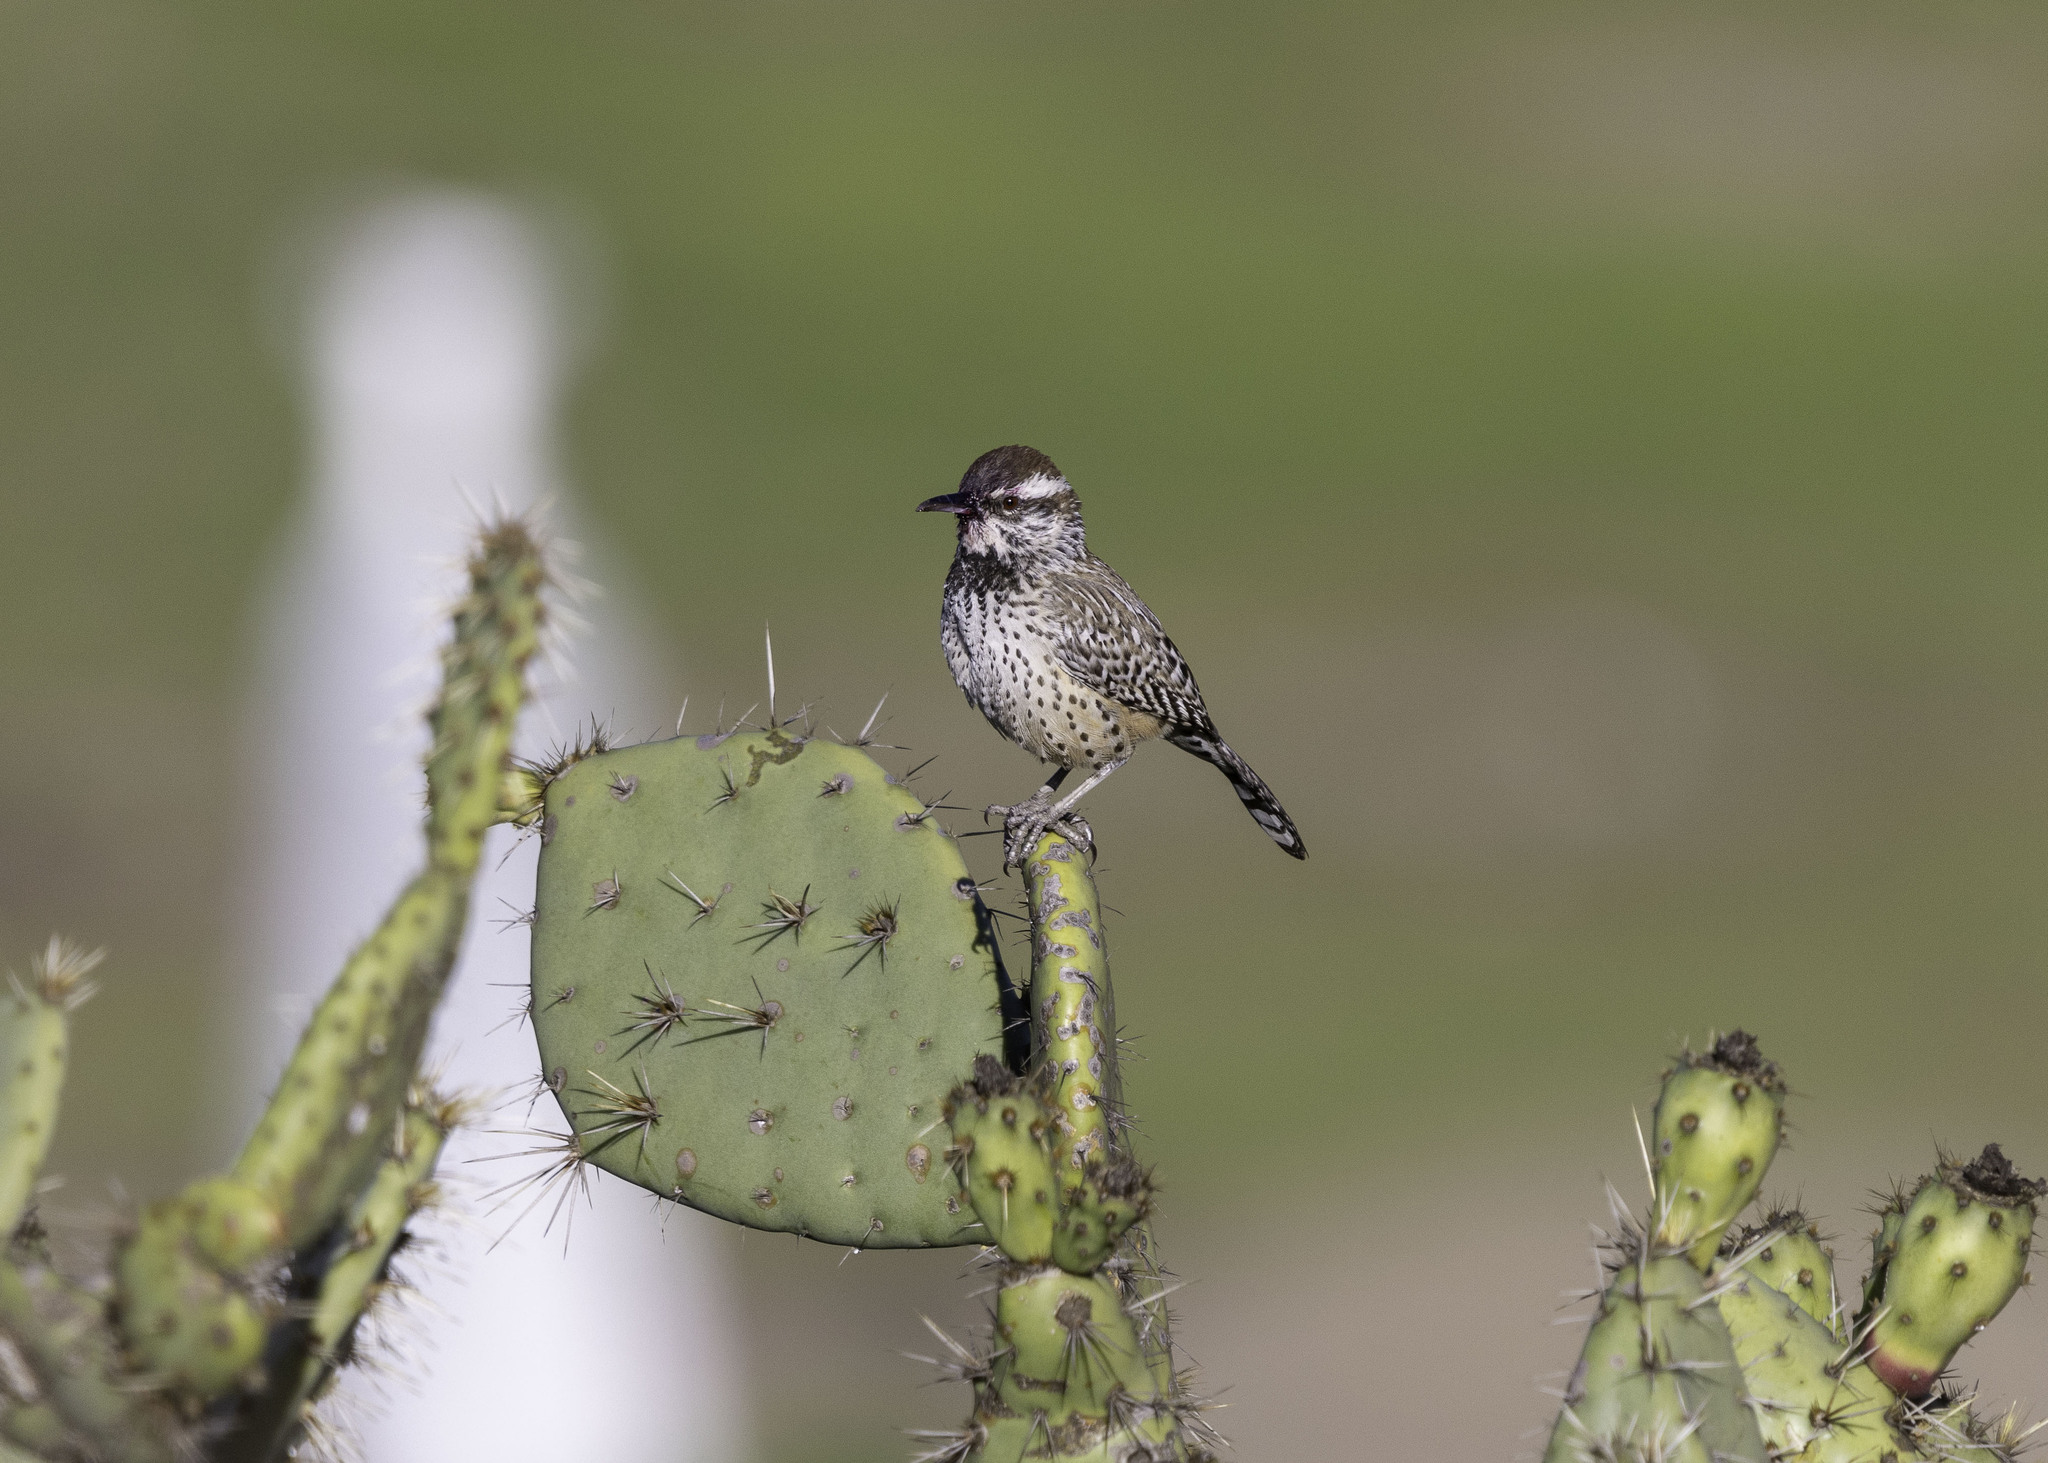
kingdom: Animalia
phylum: Chordata
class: Aves
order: Passeriformes
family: Troglodytidae
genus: Campylorhynchus
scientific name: Campylorhynchus brunneicapillus
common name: Cactus wren
